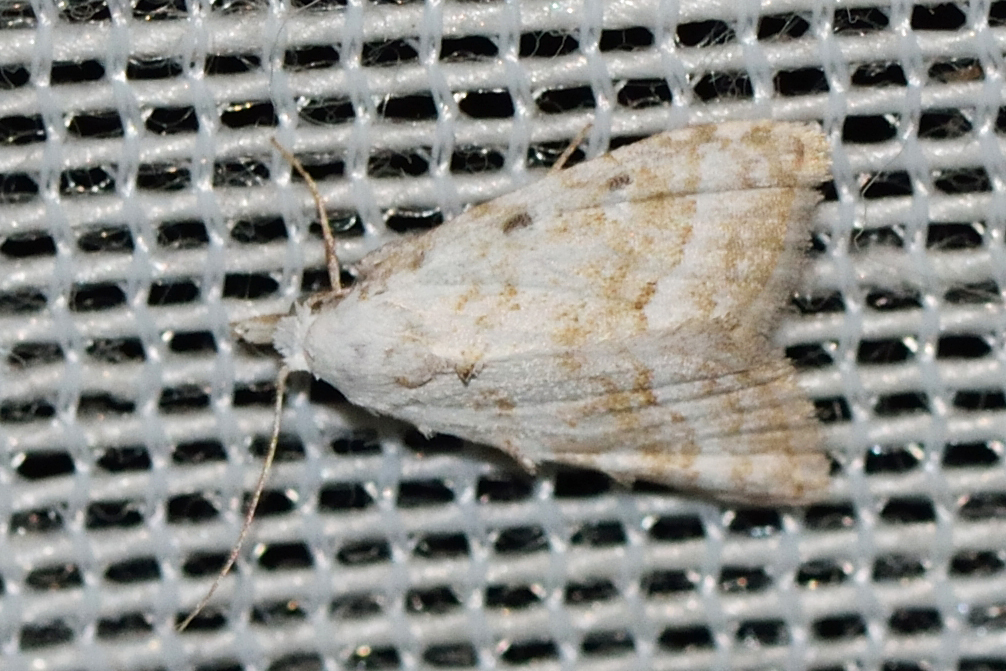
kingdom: Animalia
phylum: Arthropoda
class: Insecta
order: Lepidoptera
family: Nolidae
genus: Nola
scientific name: Nola aerugula
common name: Scarce black arches
